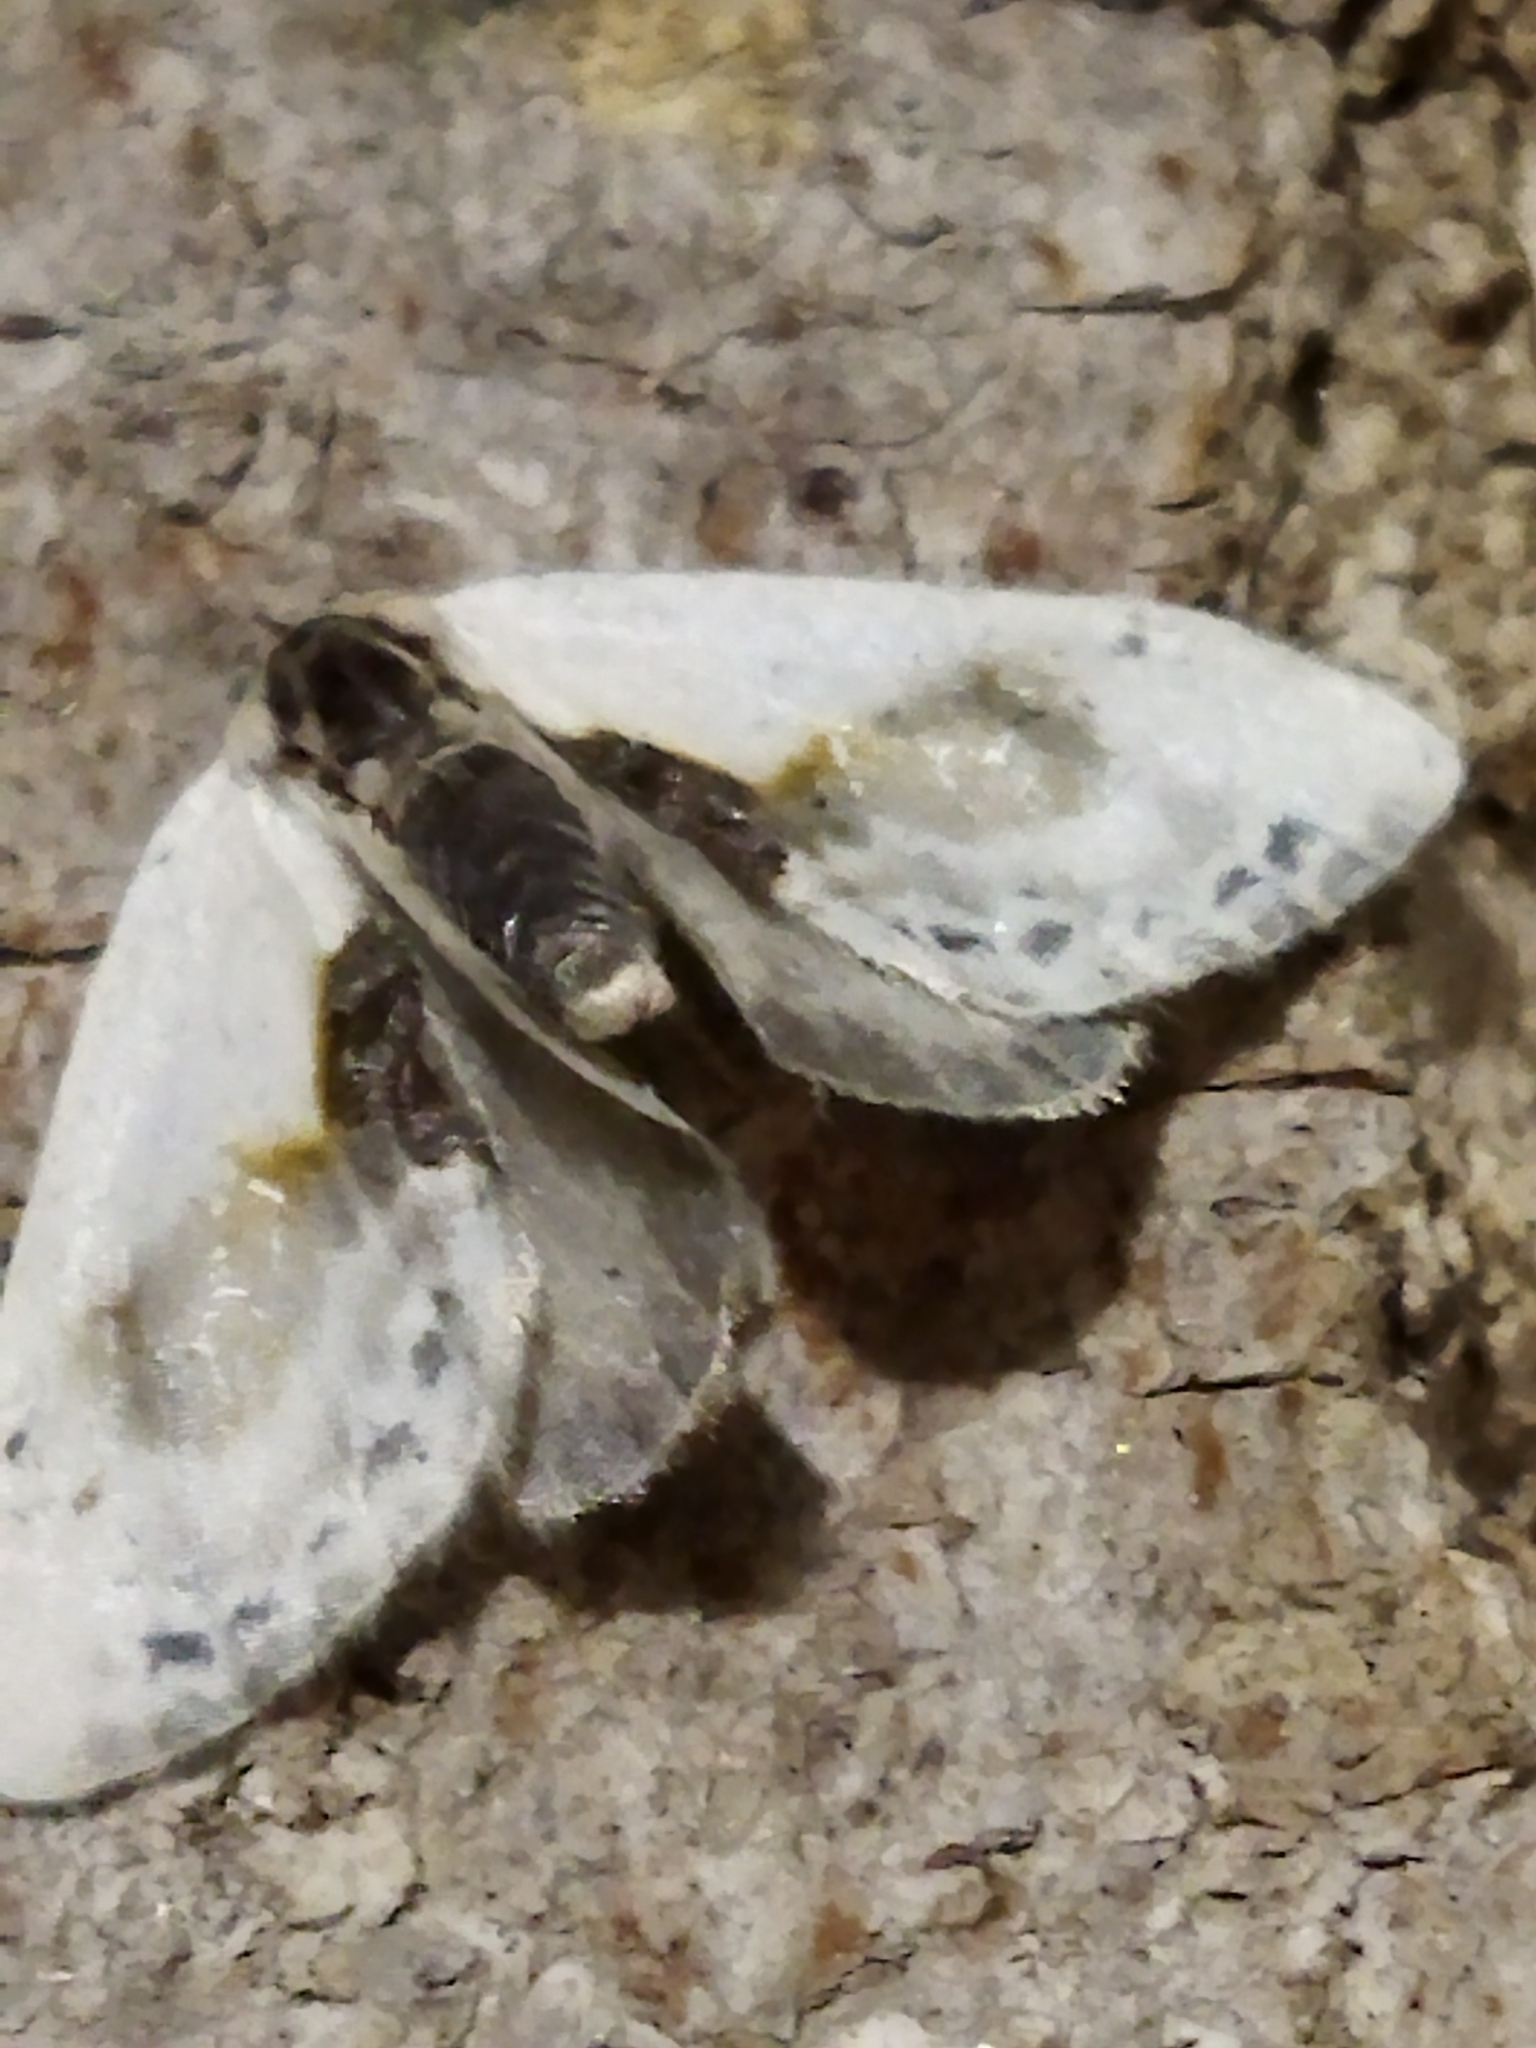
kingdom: Animalia
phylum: Arthropoda
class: Insecta
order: Lepidoptera
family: Drepanidae
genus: Cilix
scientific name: Cilix glaucata
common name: Chinese character
